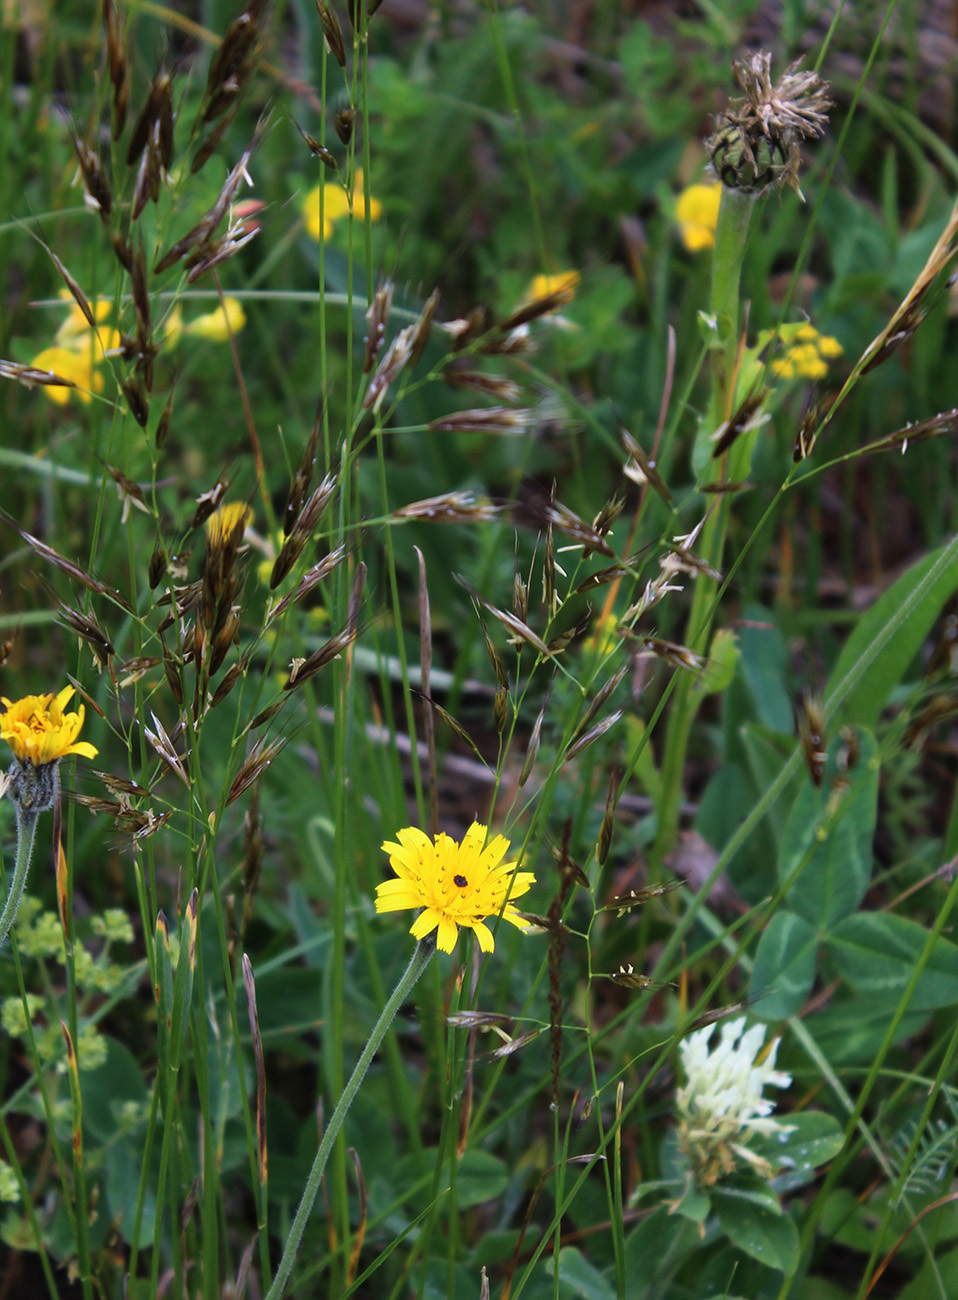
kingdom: Plantae
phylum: Tracheophyta
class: Liliopsida
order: Poales
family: Poaceae
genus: Helictochloa
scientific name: Helictochloa versicolor
